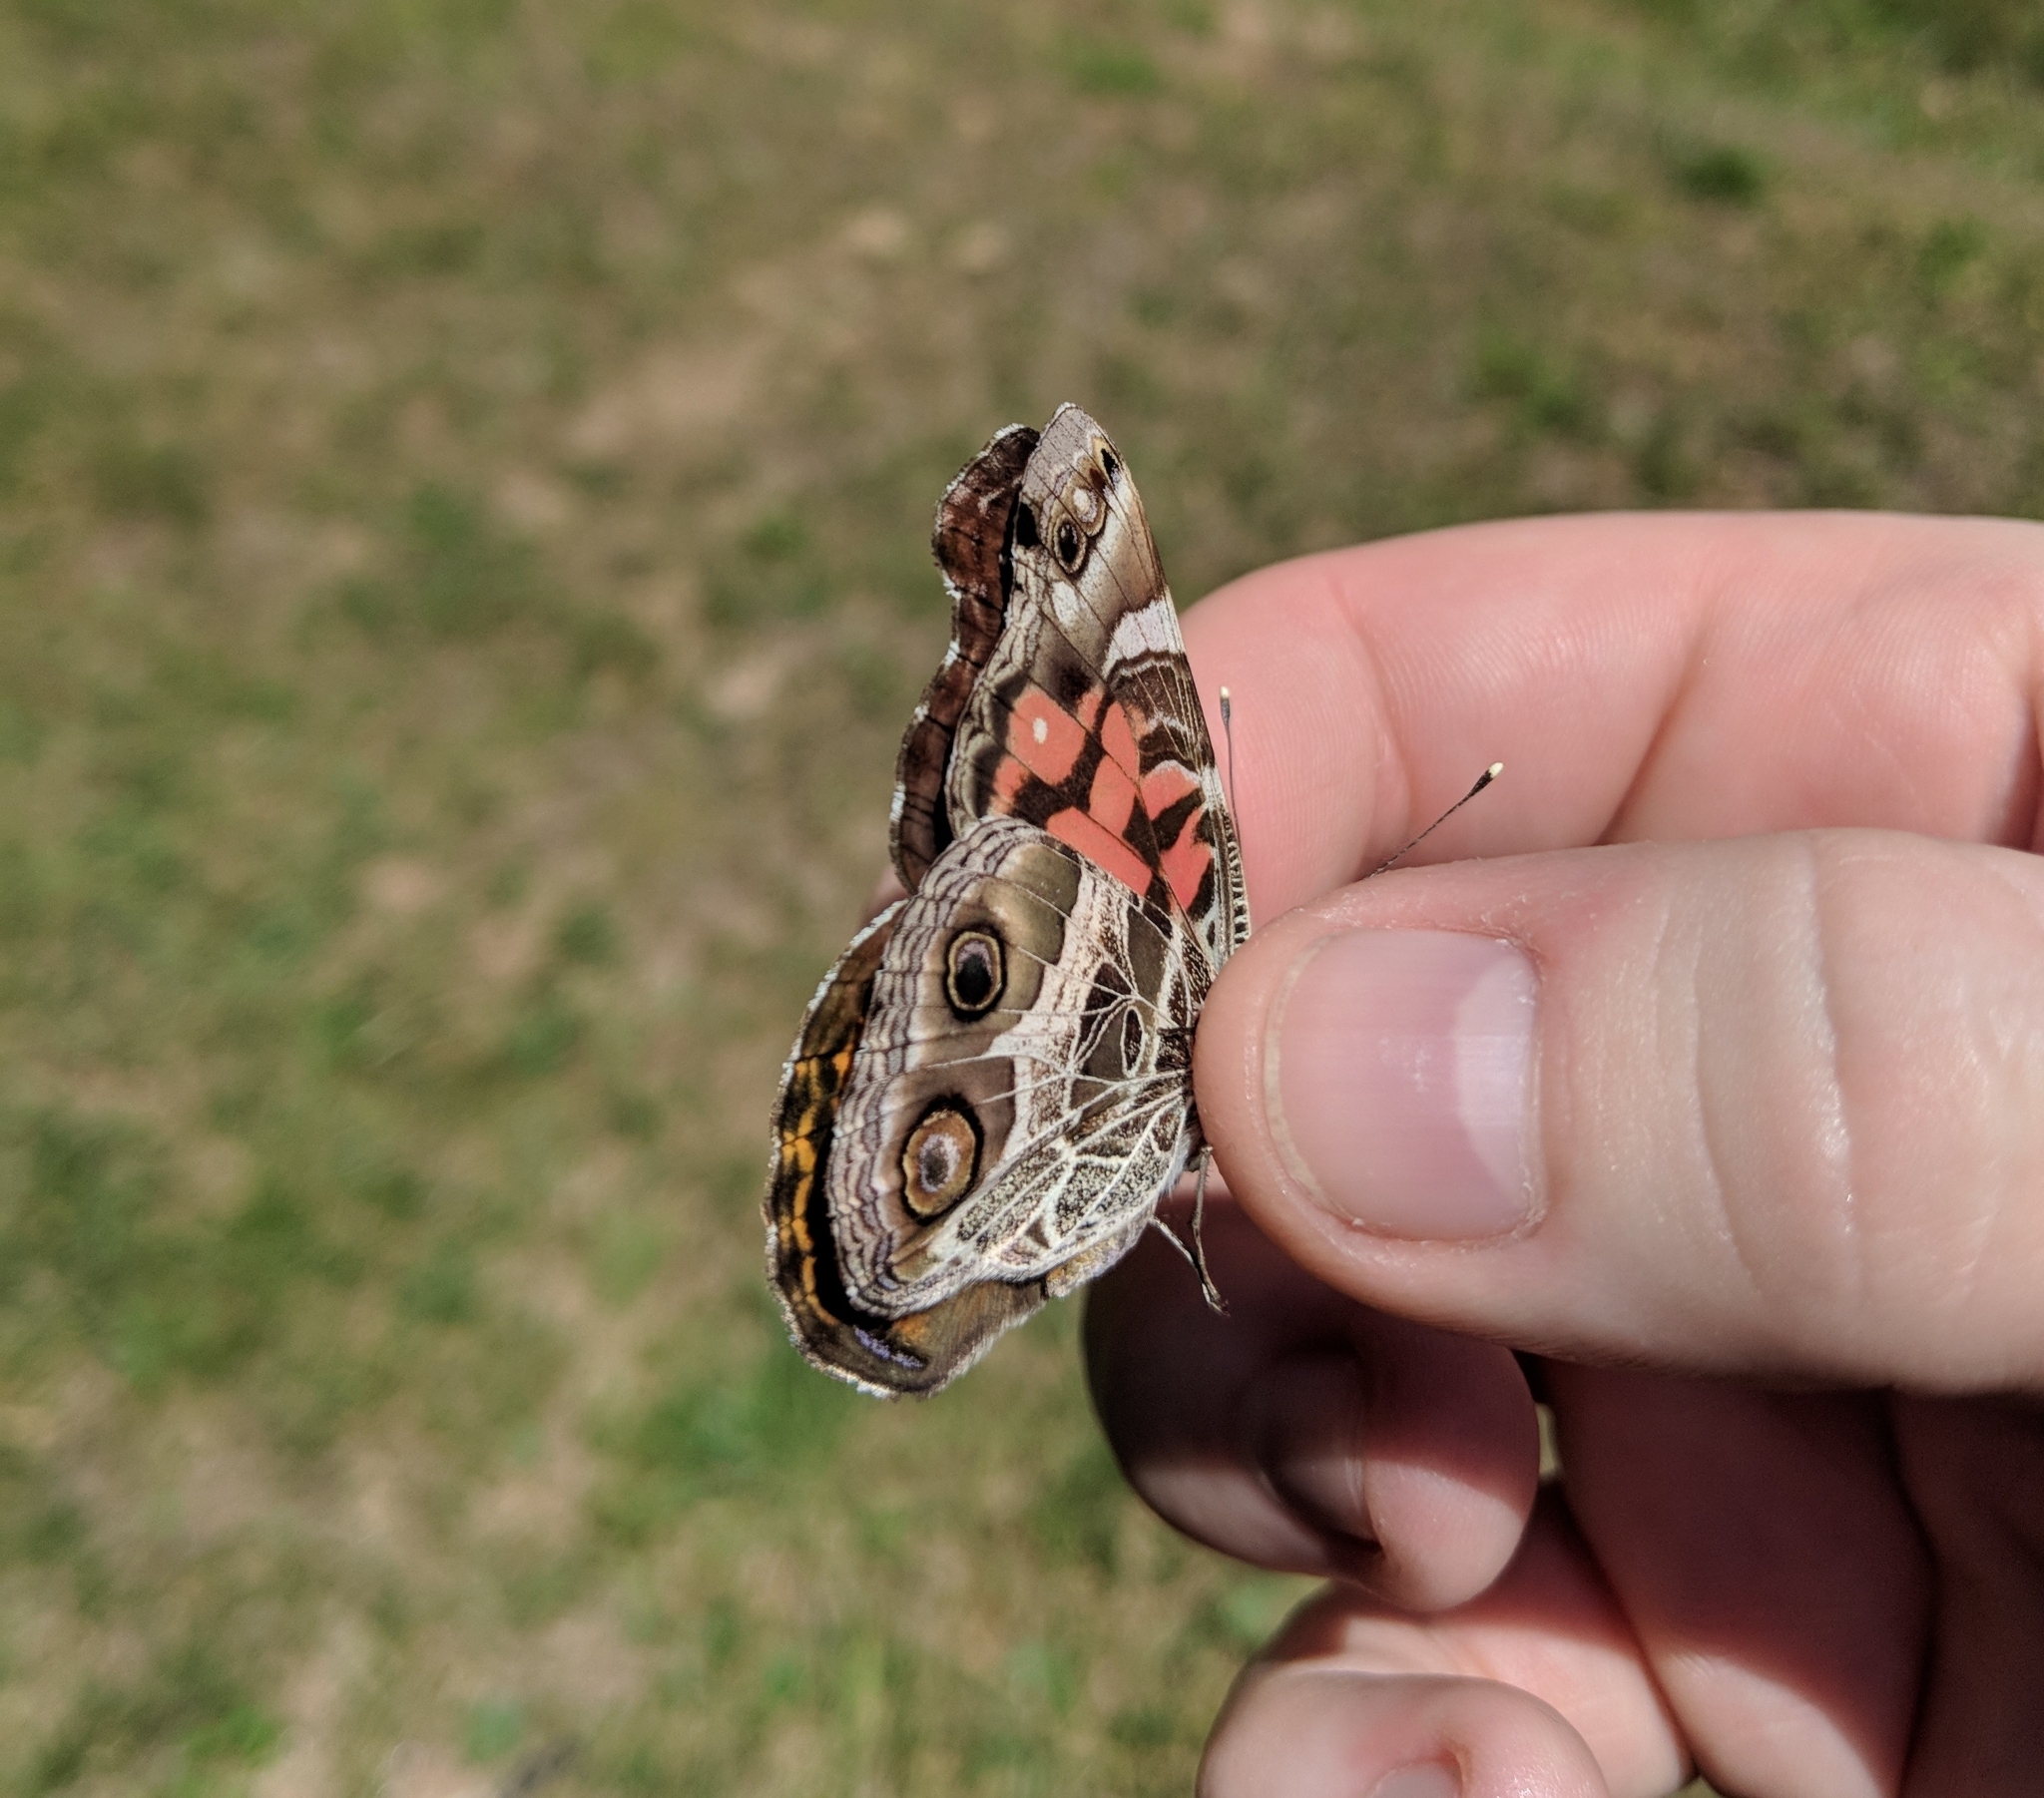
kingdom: Animalia
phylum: Arthropoda
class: Insecta
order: Lepidoptera
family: Nymphalidae
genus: Vanessa
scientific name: Vanessa virginiensis
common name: American lady
